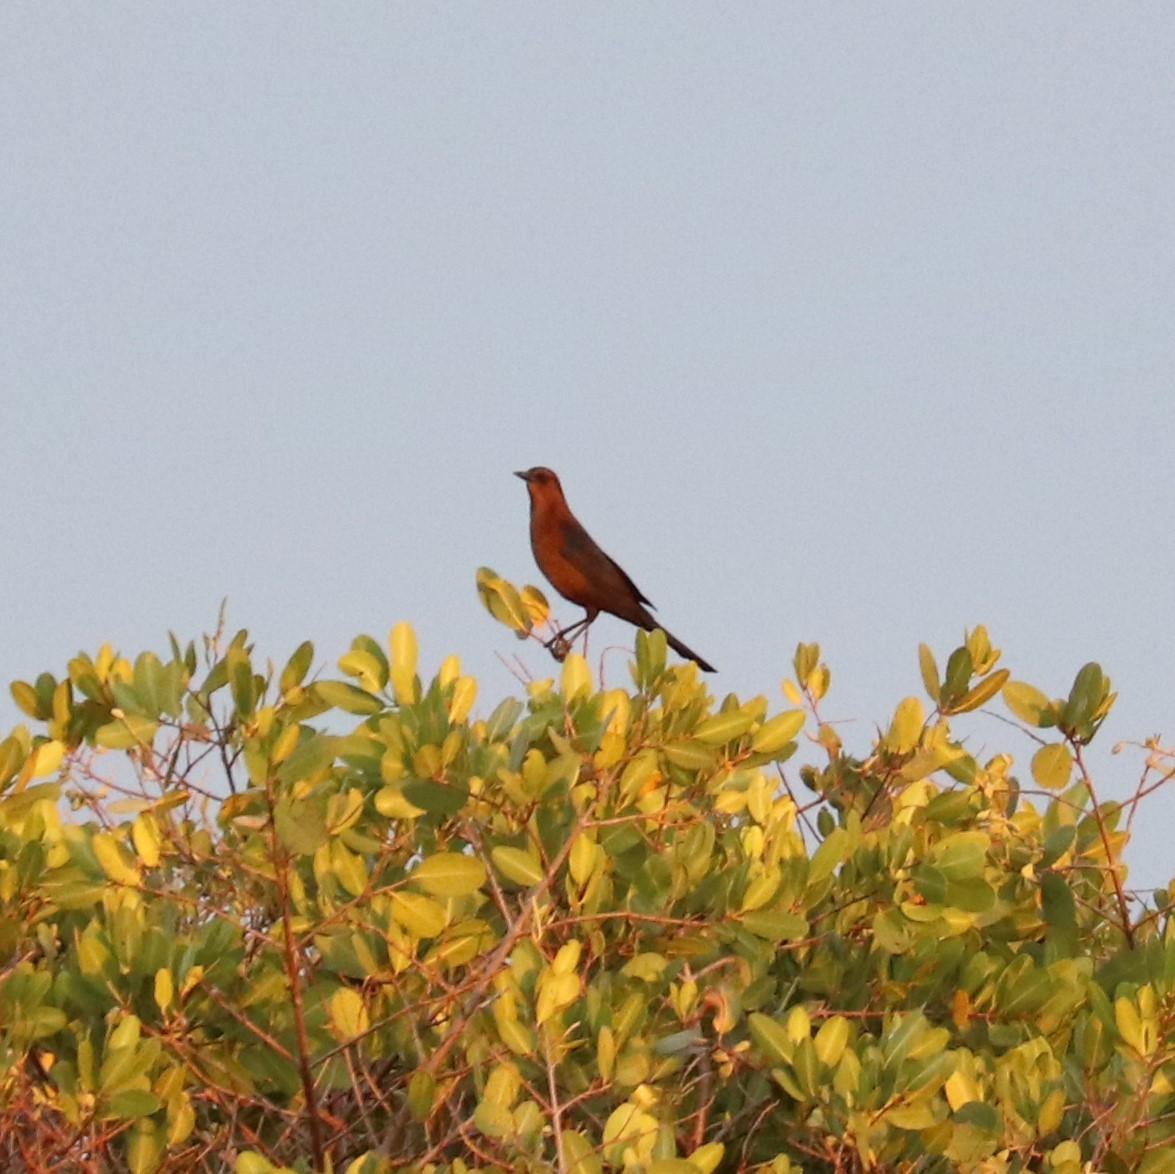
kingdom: Animalia
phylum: Chordata
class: Aves
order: Passeriformes
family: Icteridae
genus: Quiscalus
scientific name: Quiscalus major
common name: Boat-tailed grackle
